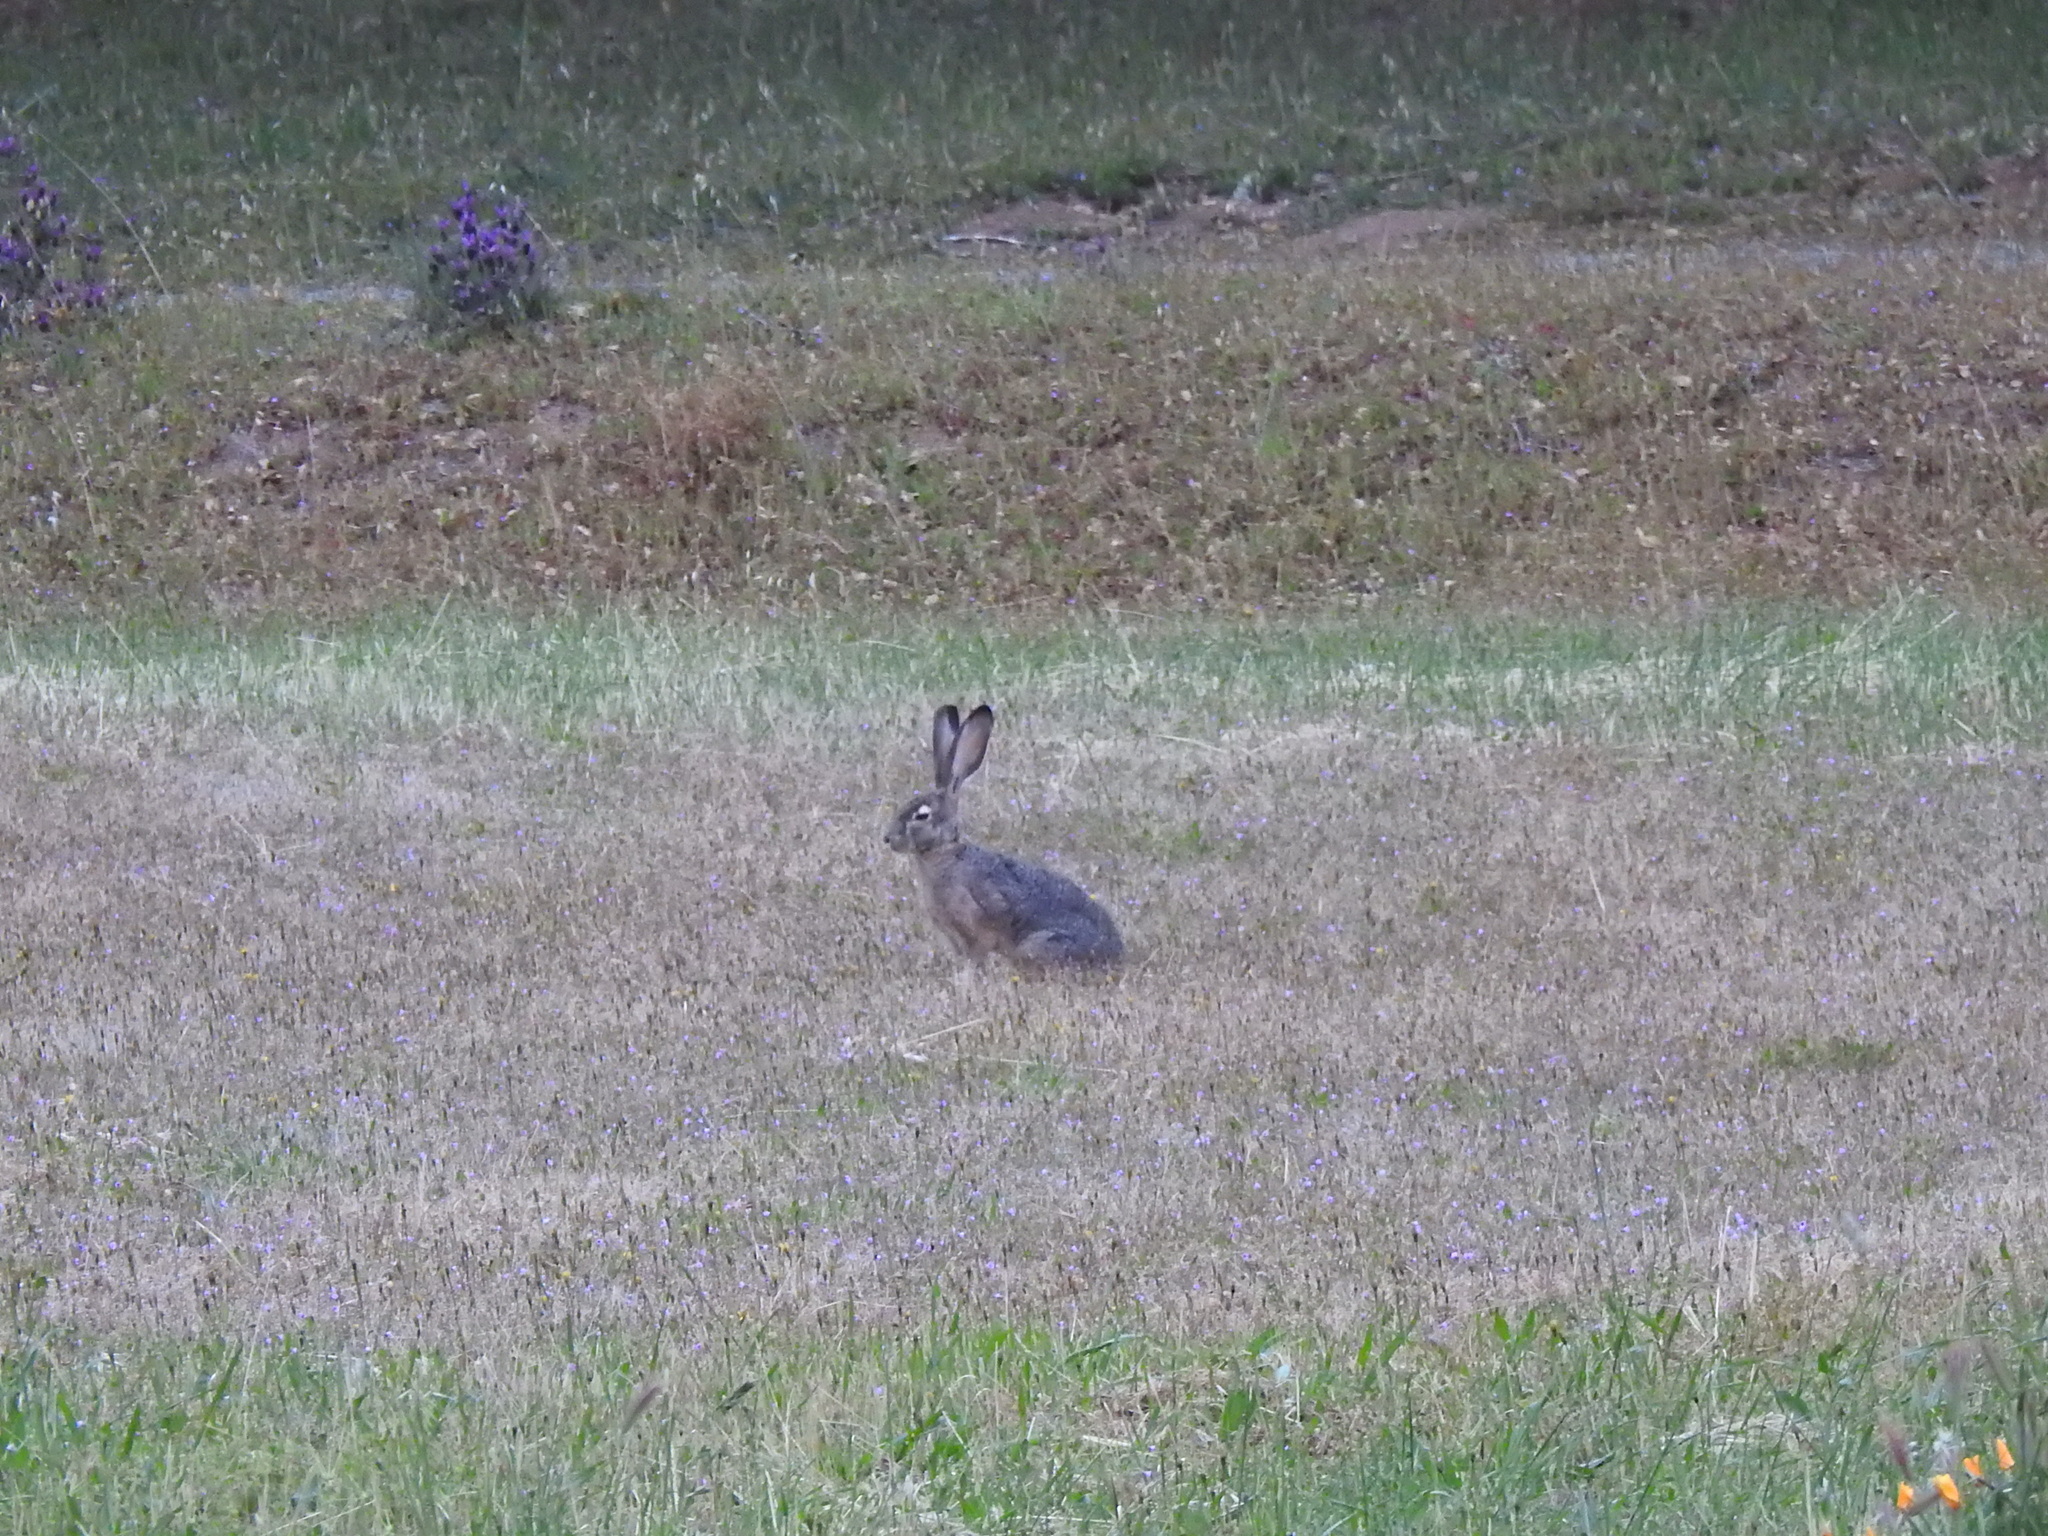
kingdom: Animalia
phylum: Chordata
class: Mammalia
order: Lagomorpha
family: Leporidae
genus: Lepus
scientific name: Lepus californicus
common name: Black-tailed jackrabbit
